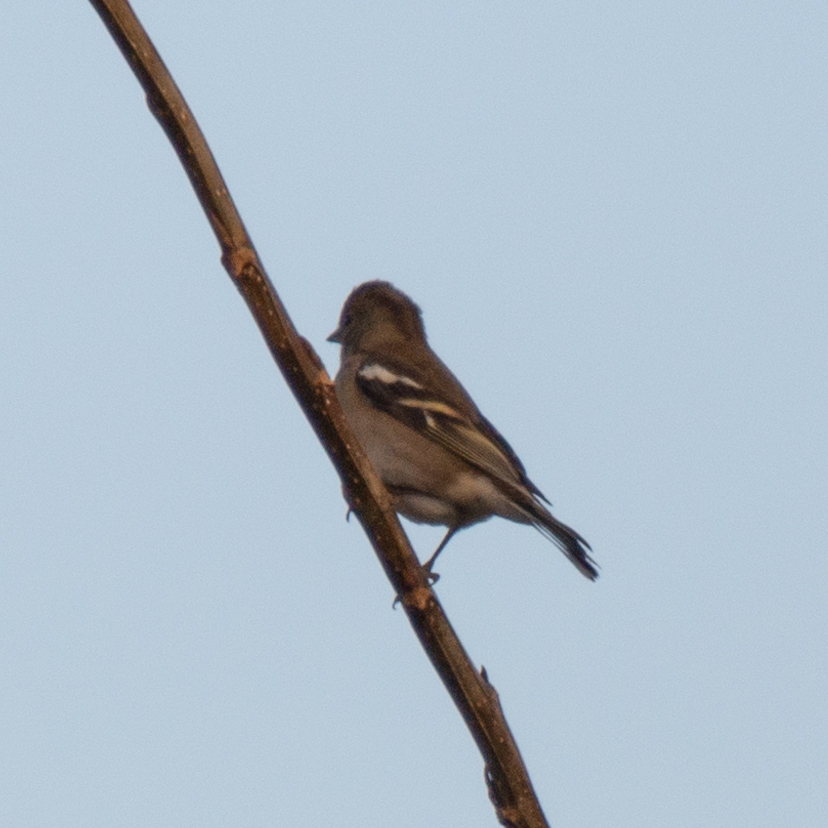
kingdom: Animalia
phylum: Chordata
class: Aves
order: Passeriformes
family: Fringillidae
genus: Fringilla
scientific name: Fringilla coelebs
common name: Common chaffinch
